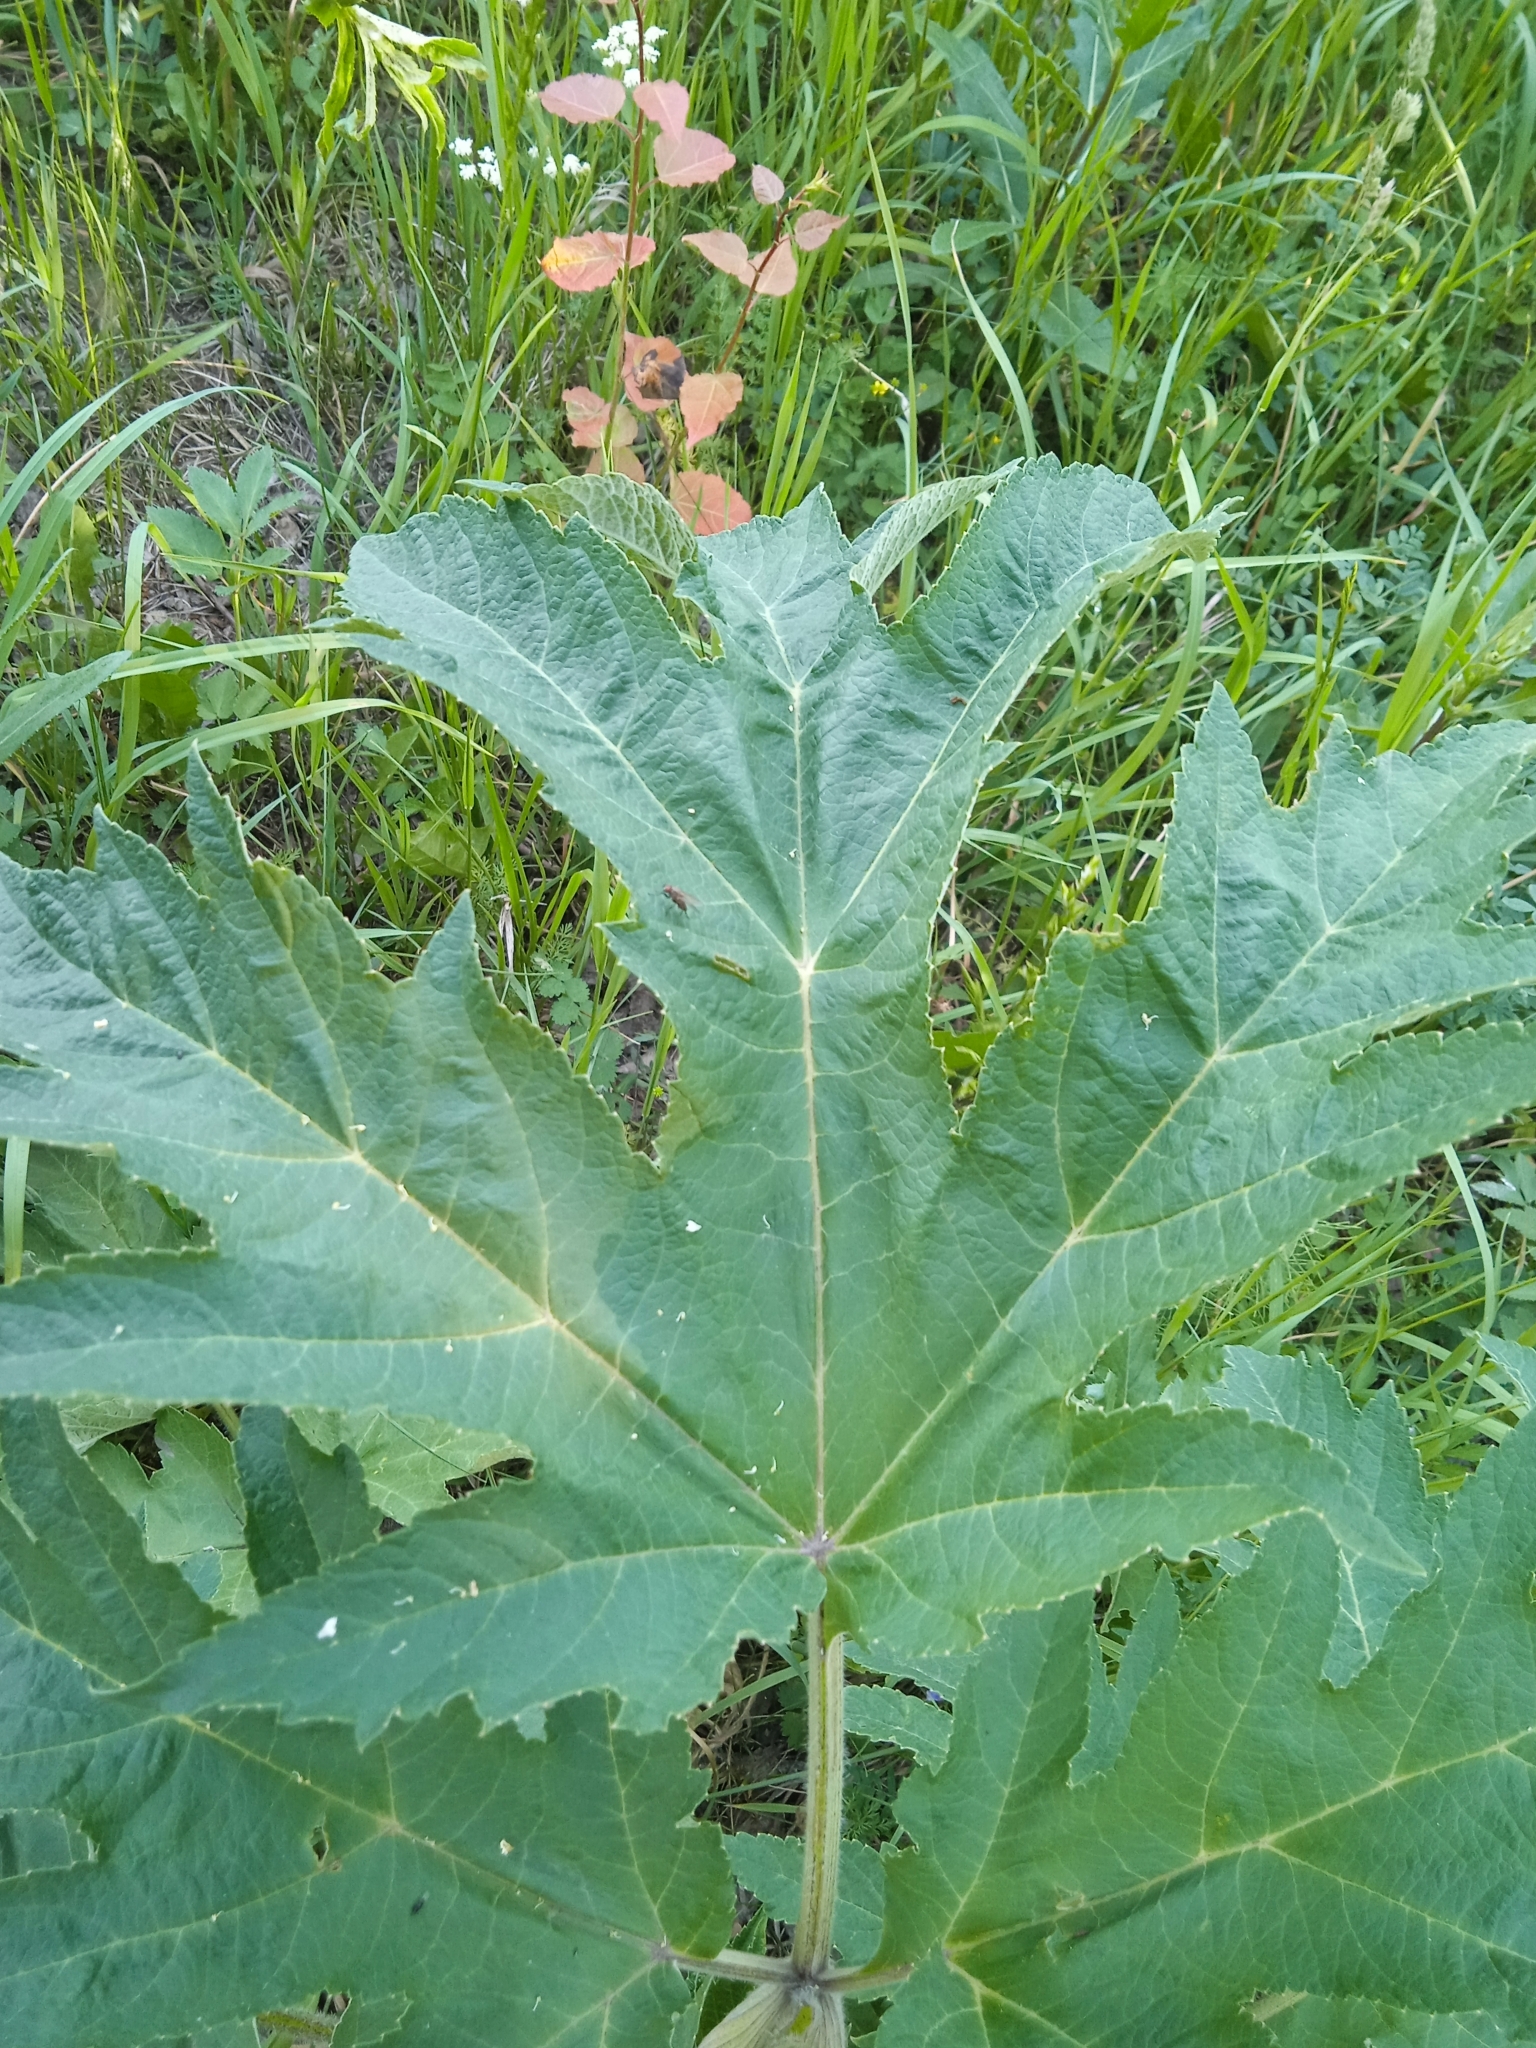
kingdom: Plantae
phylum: Tracheophyta
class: Magnoliopsida
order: Apiales
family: Apiaceae
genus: Heracleum
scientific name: Heracleum dissectum
